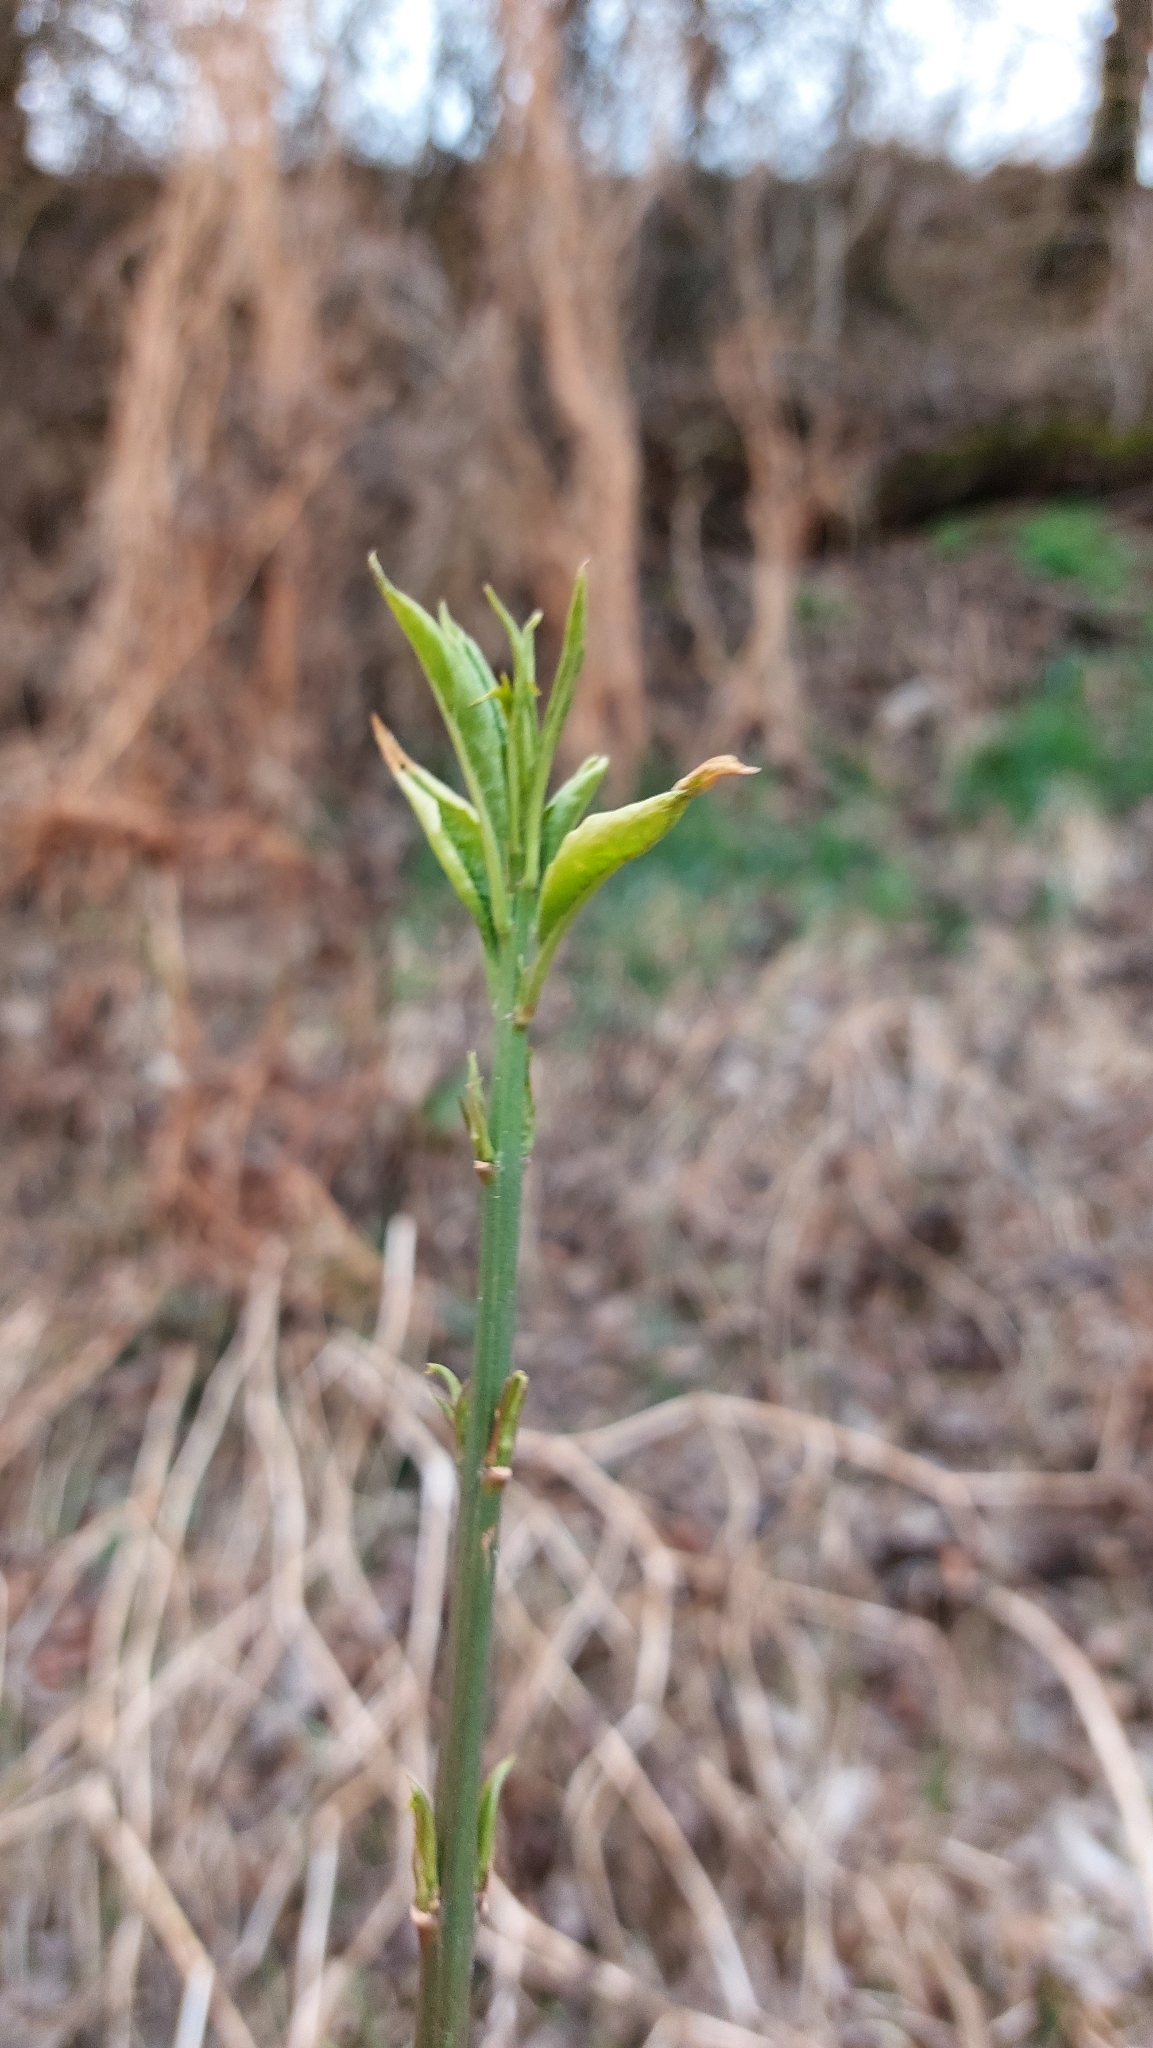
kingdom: Plantae
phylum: Tracheophyta
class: Magnoliopsida
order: Celastrales
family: Celastraceae
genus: Euonymus
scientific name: Euonymus europaeus
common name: Spindle
